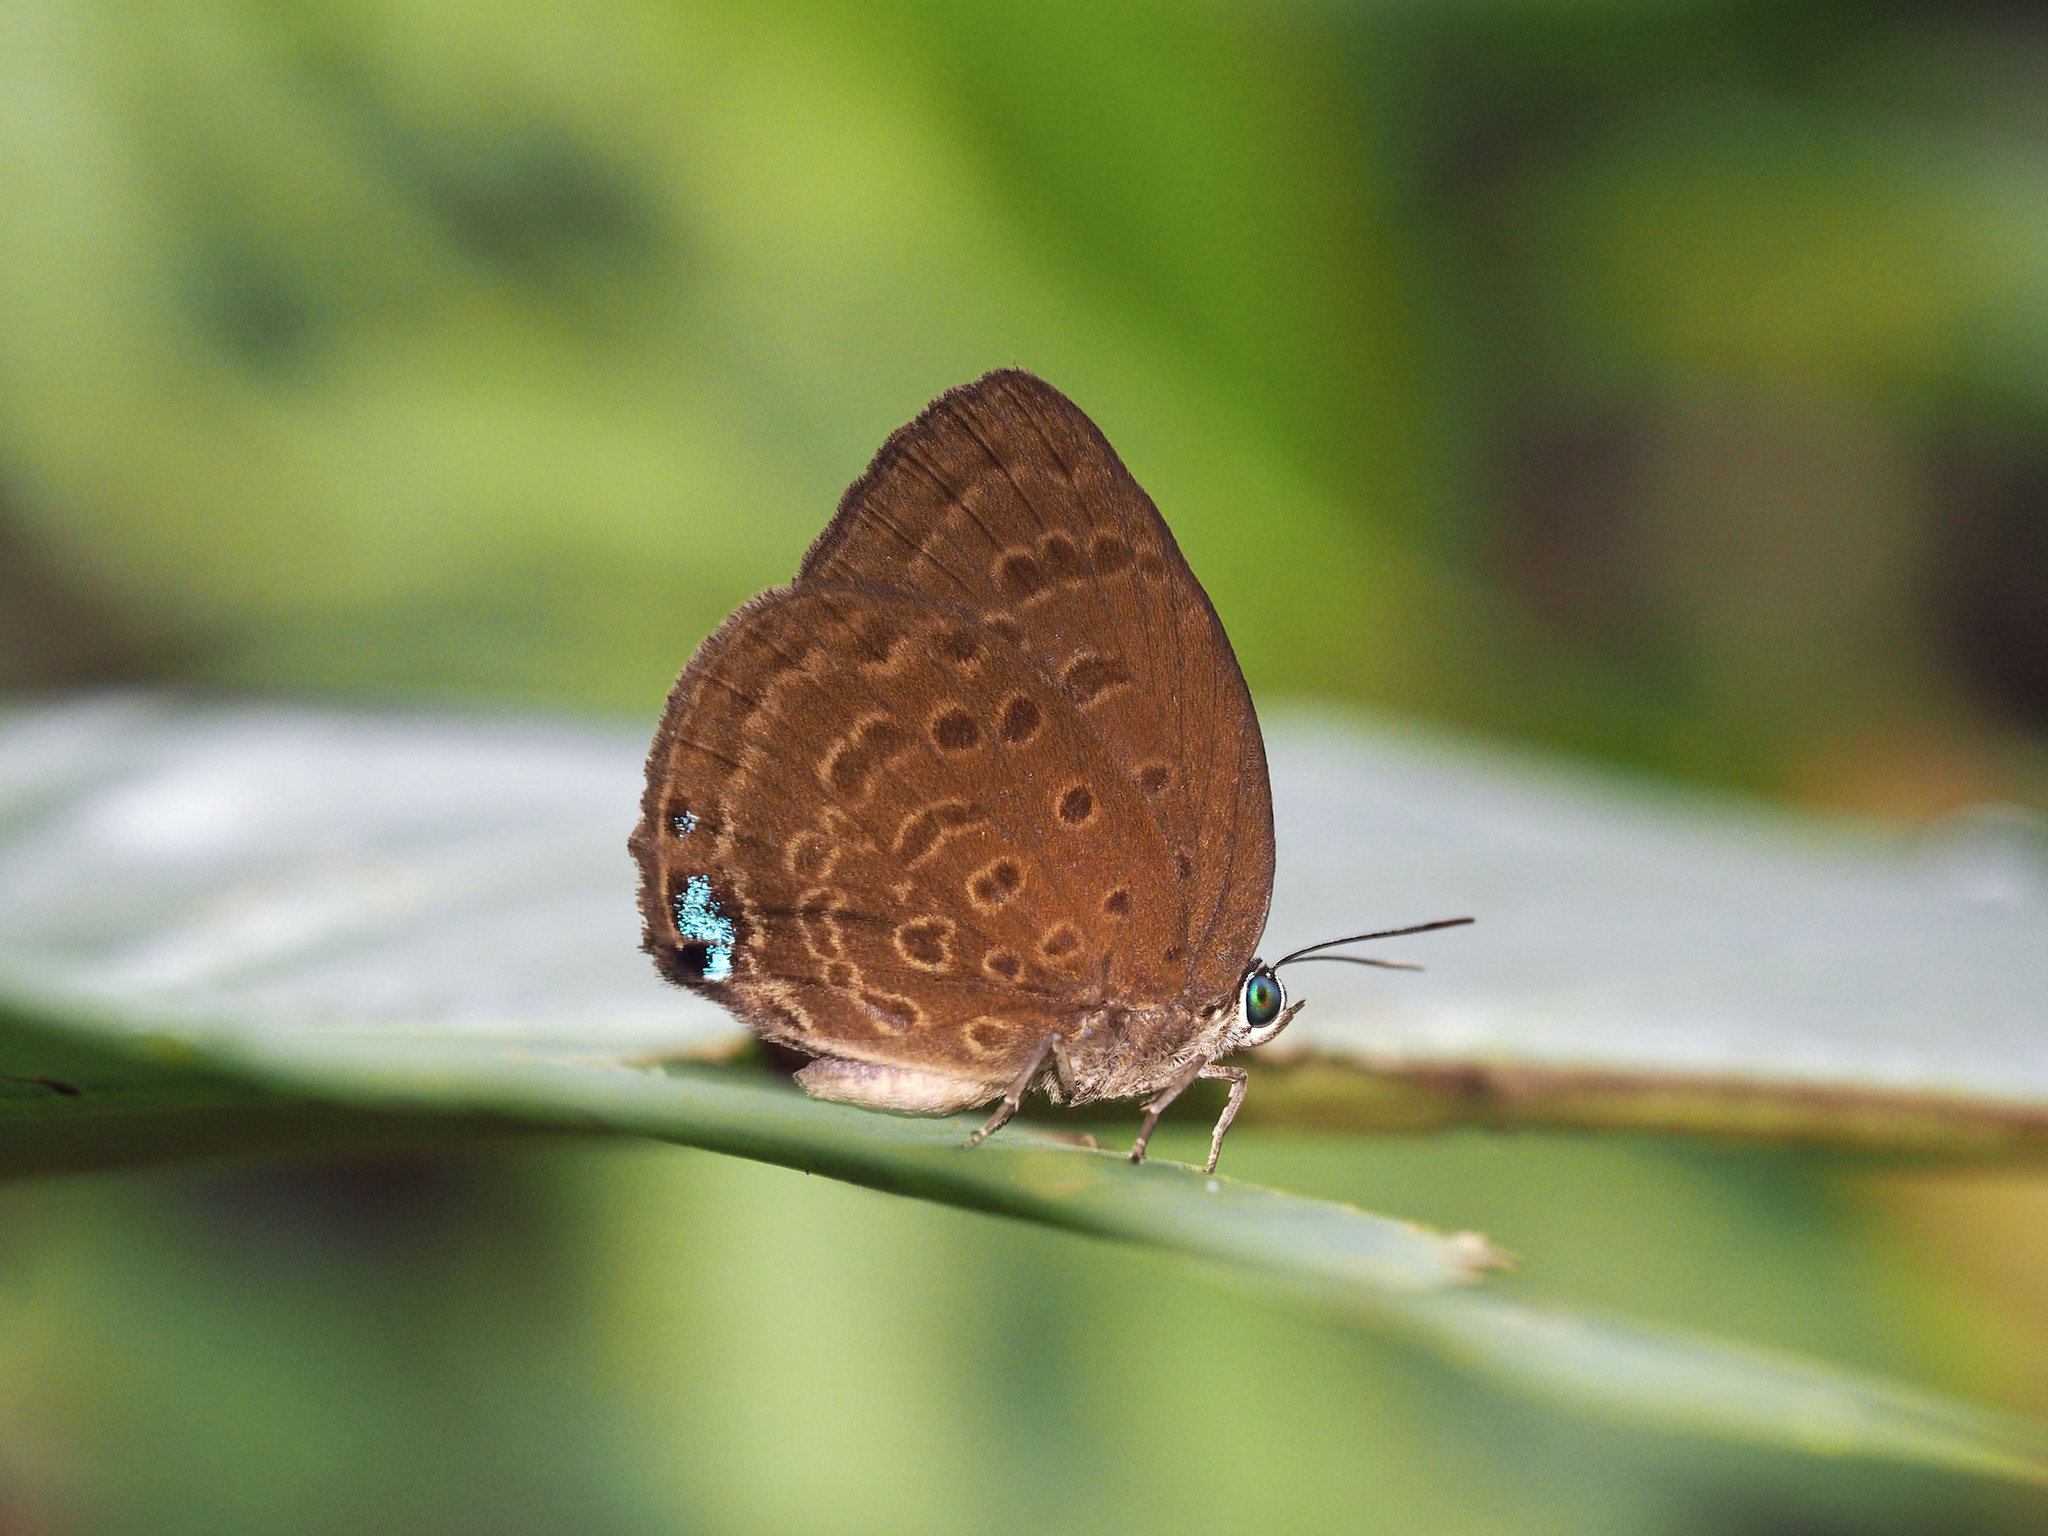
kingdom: Animalia
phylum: Arthropoda
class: Insecta
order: Lepidoptera
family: Lycaenidae
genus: Arhopala
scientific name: Arhopala major
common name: Major yellow oakblue
